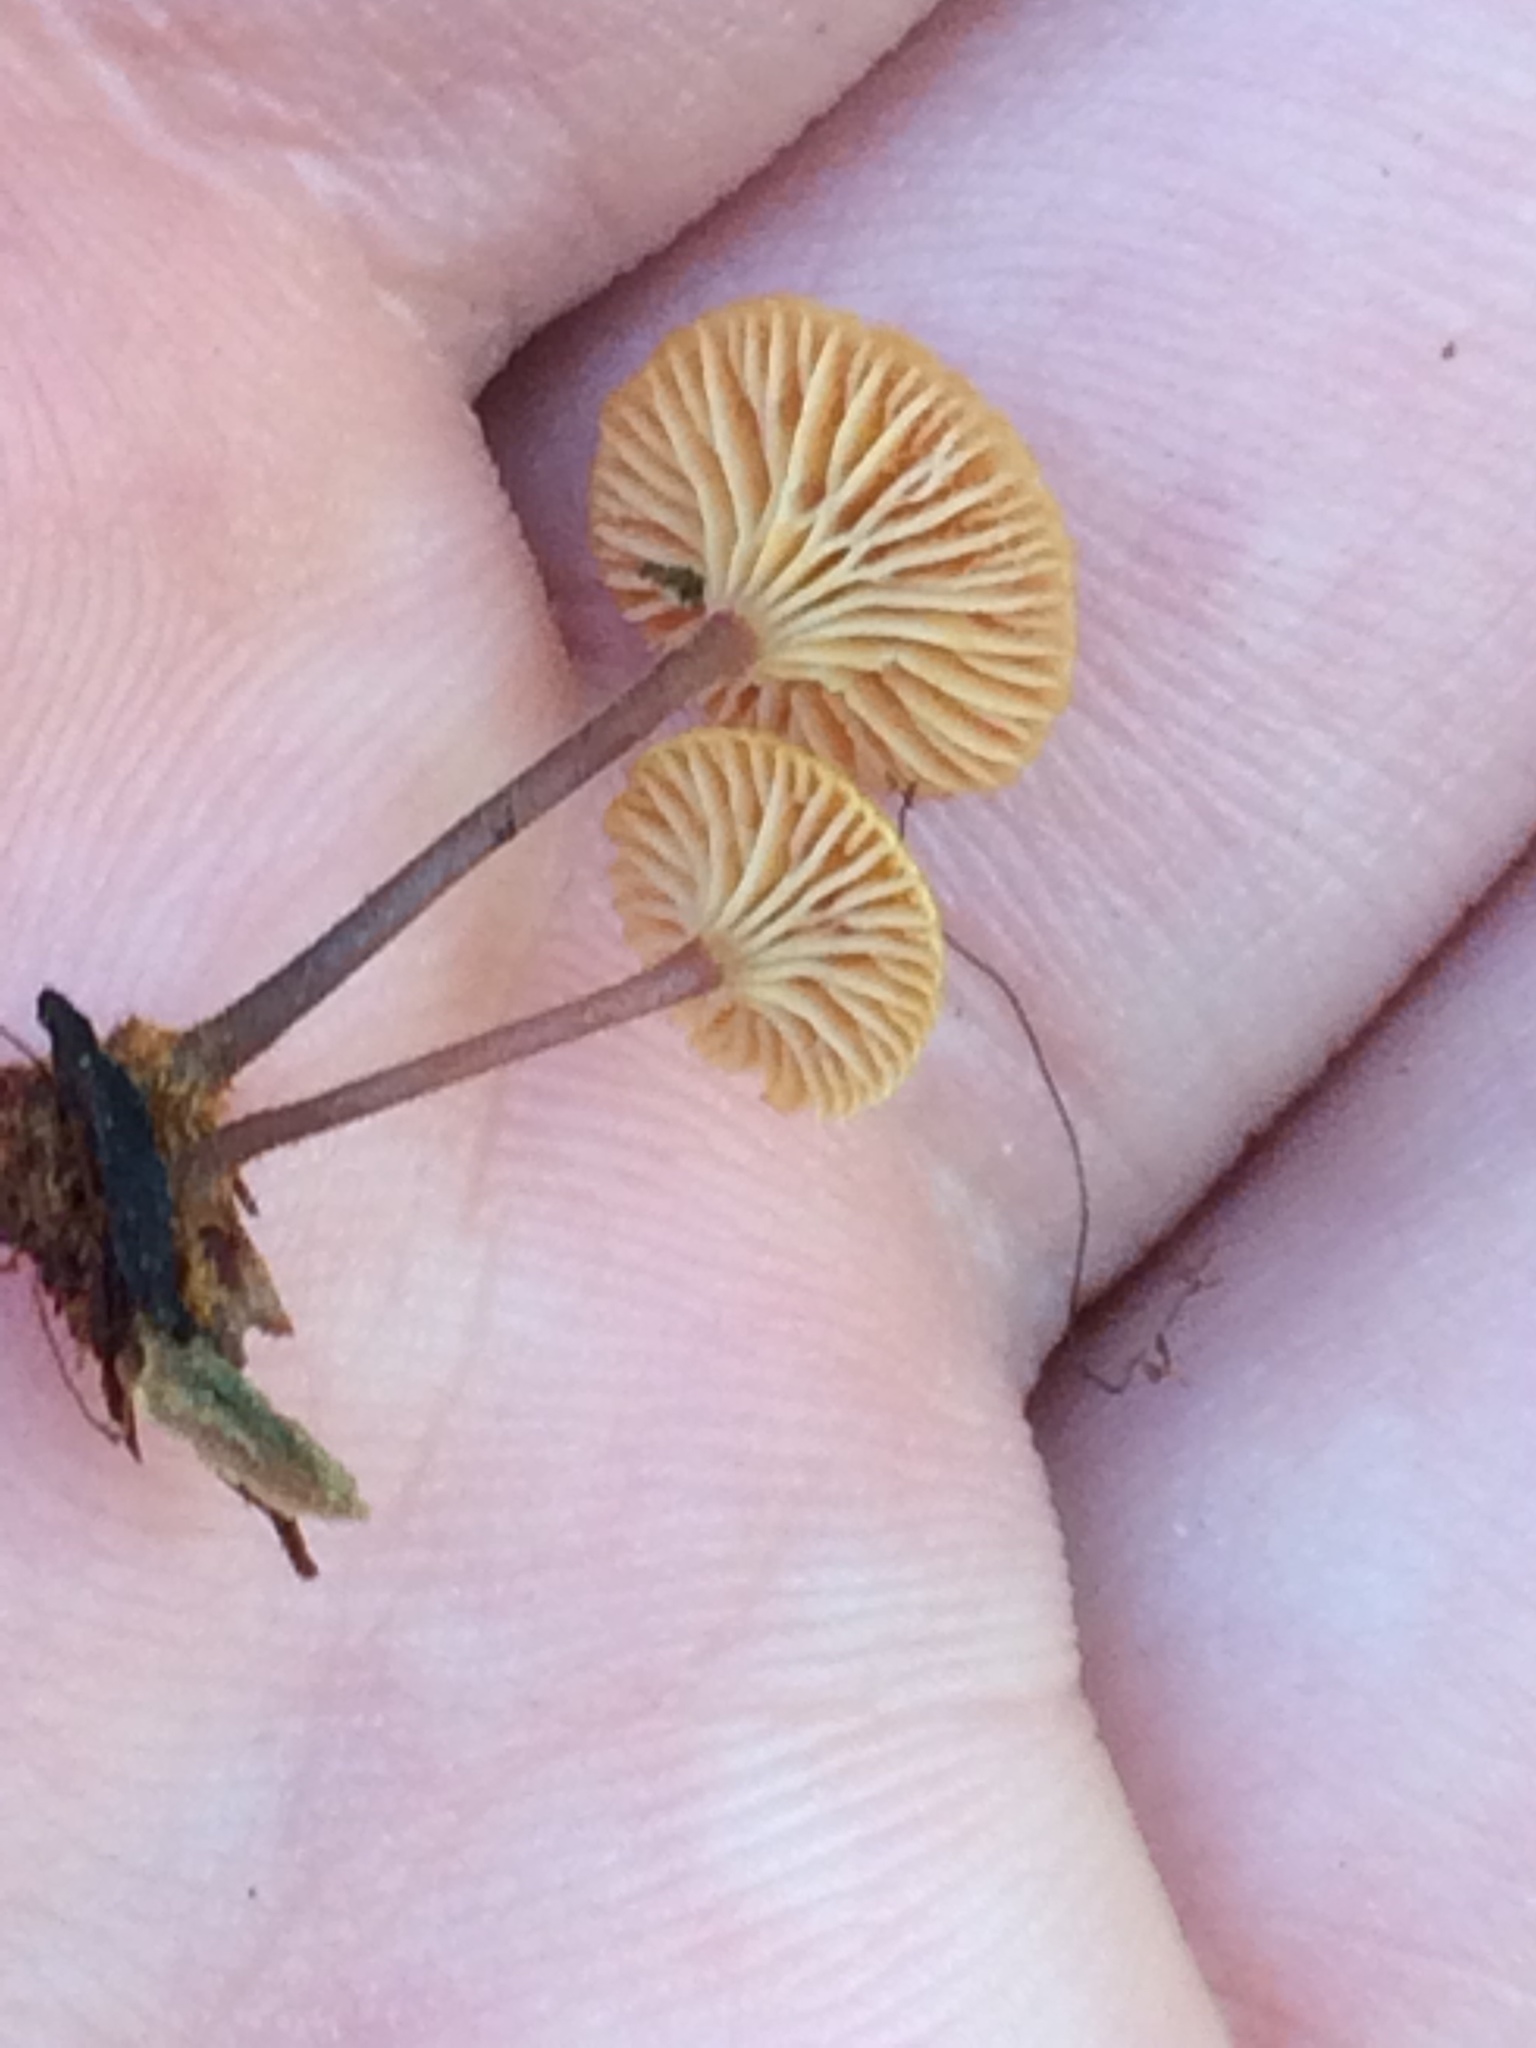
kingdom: Fungi
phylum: Basidiomycota
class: Agaricomycetes
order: Agaricales
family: Mycenaceae
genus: Xeromphalina
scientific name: Xeromphalina campanella
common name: Pinewood gingertail
